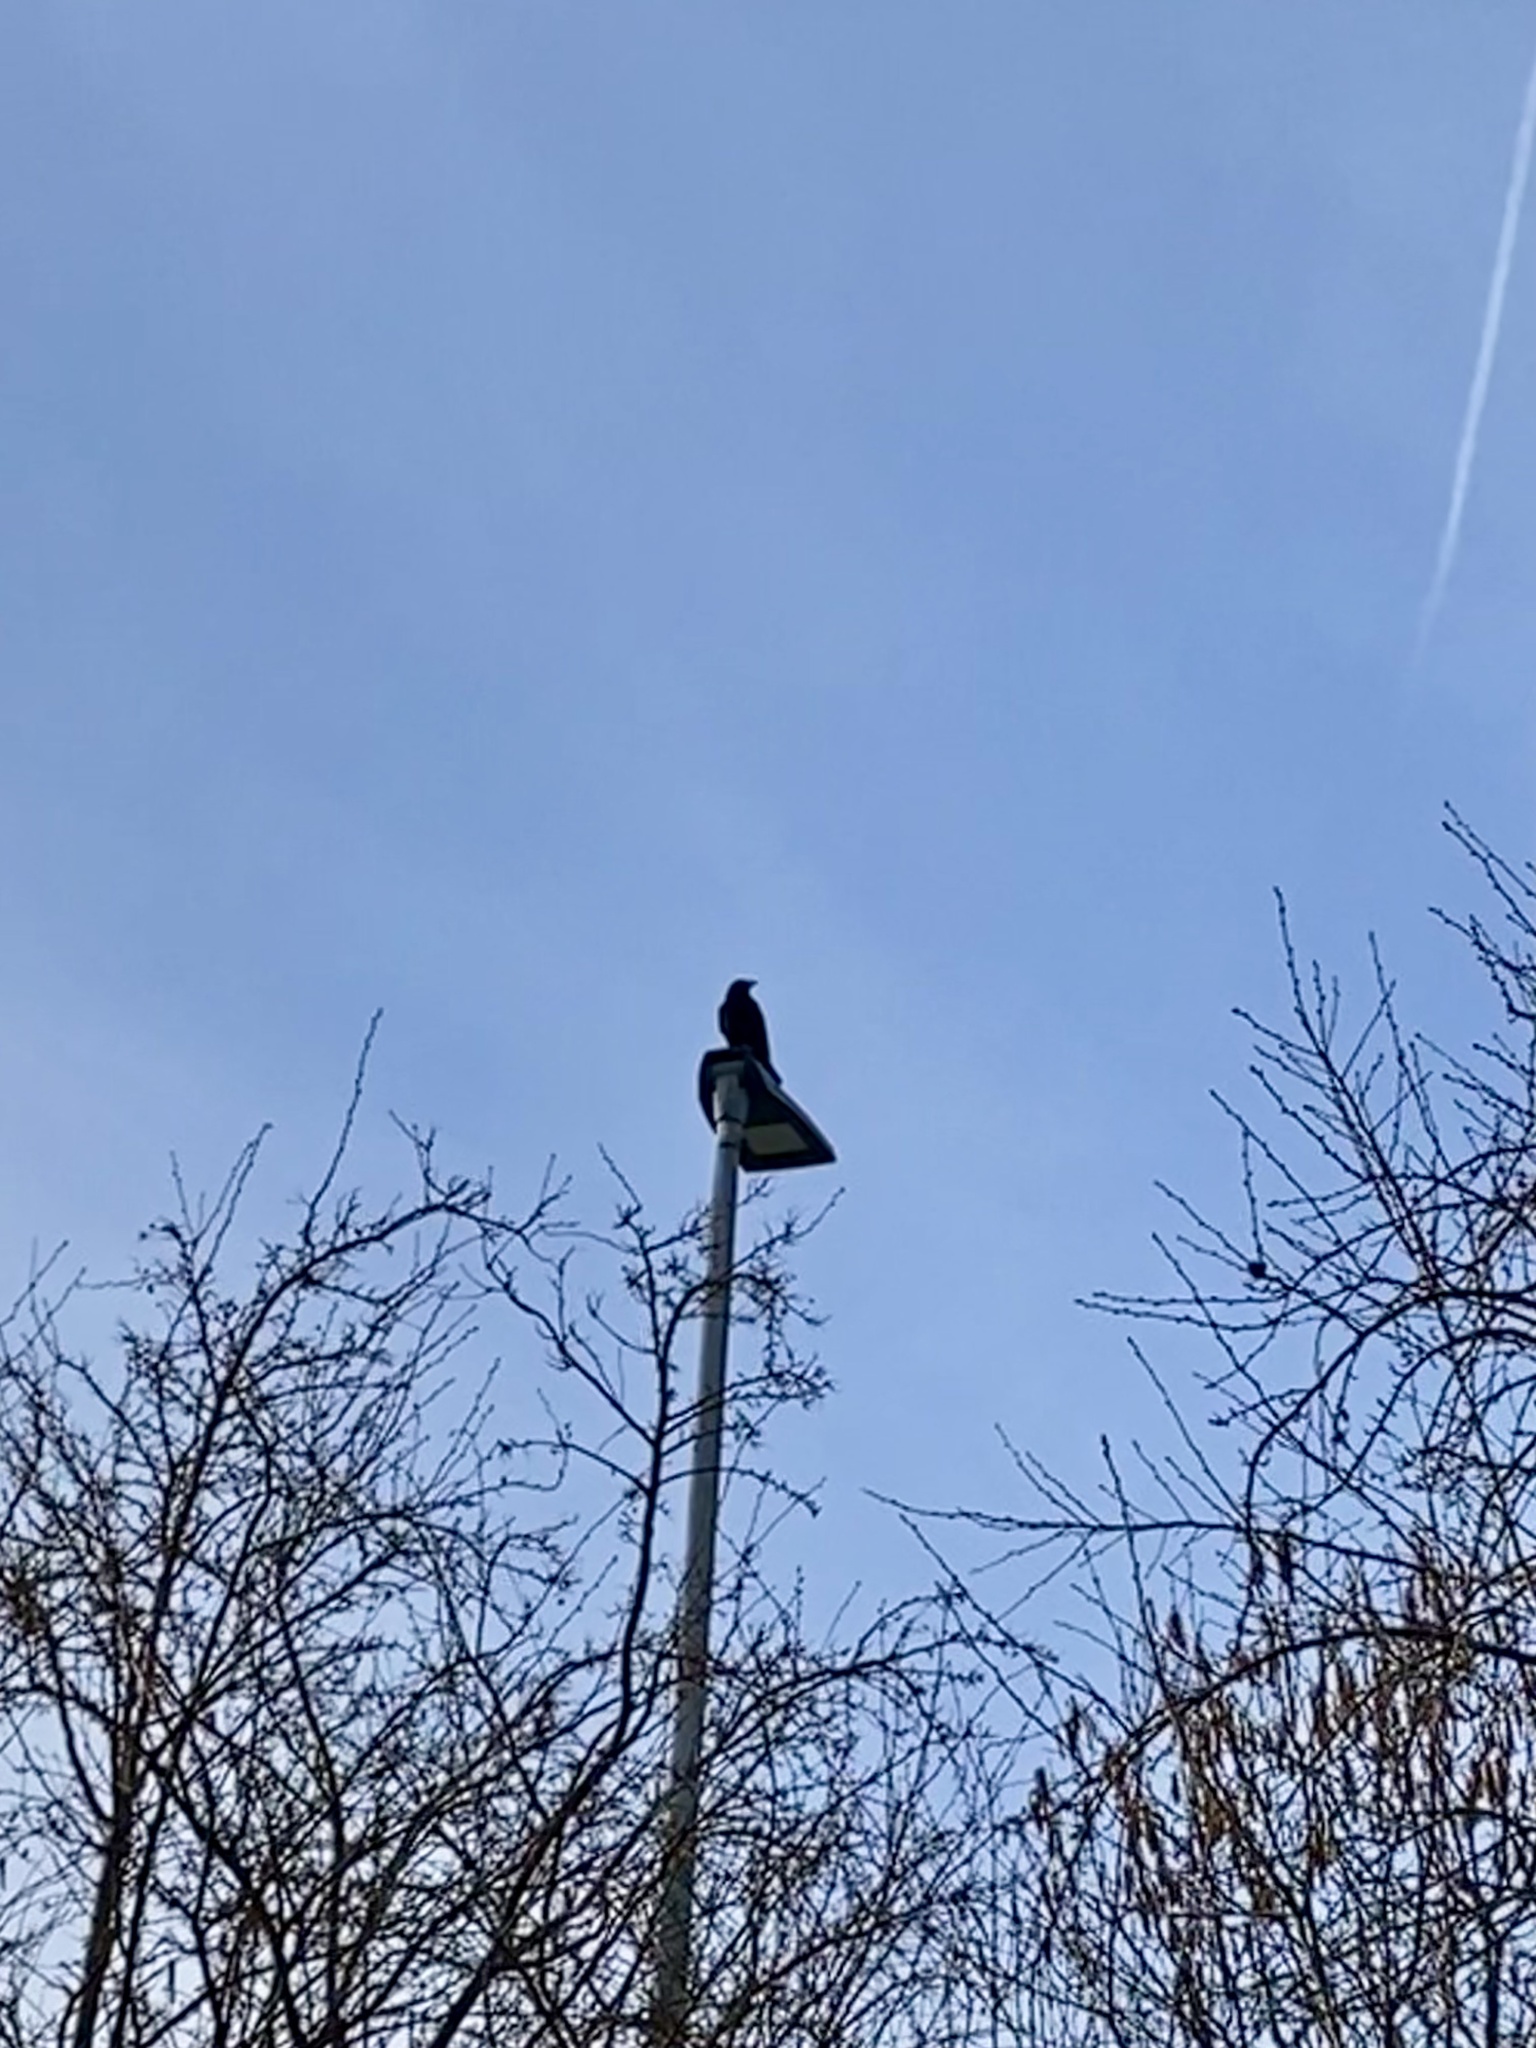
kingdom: Animalia
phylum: Chordata
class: Aves
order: Passeriformes
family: Corvidae
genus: Corvus
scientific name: Corvus corone
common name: Carrion crow
